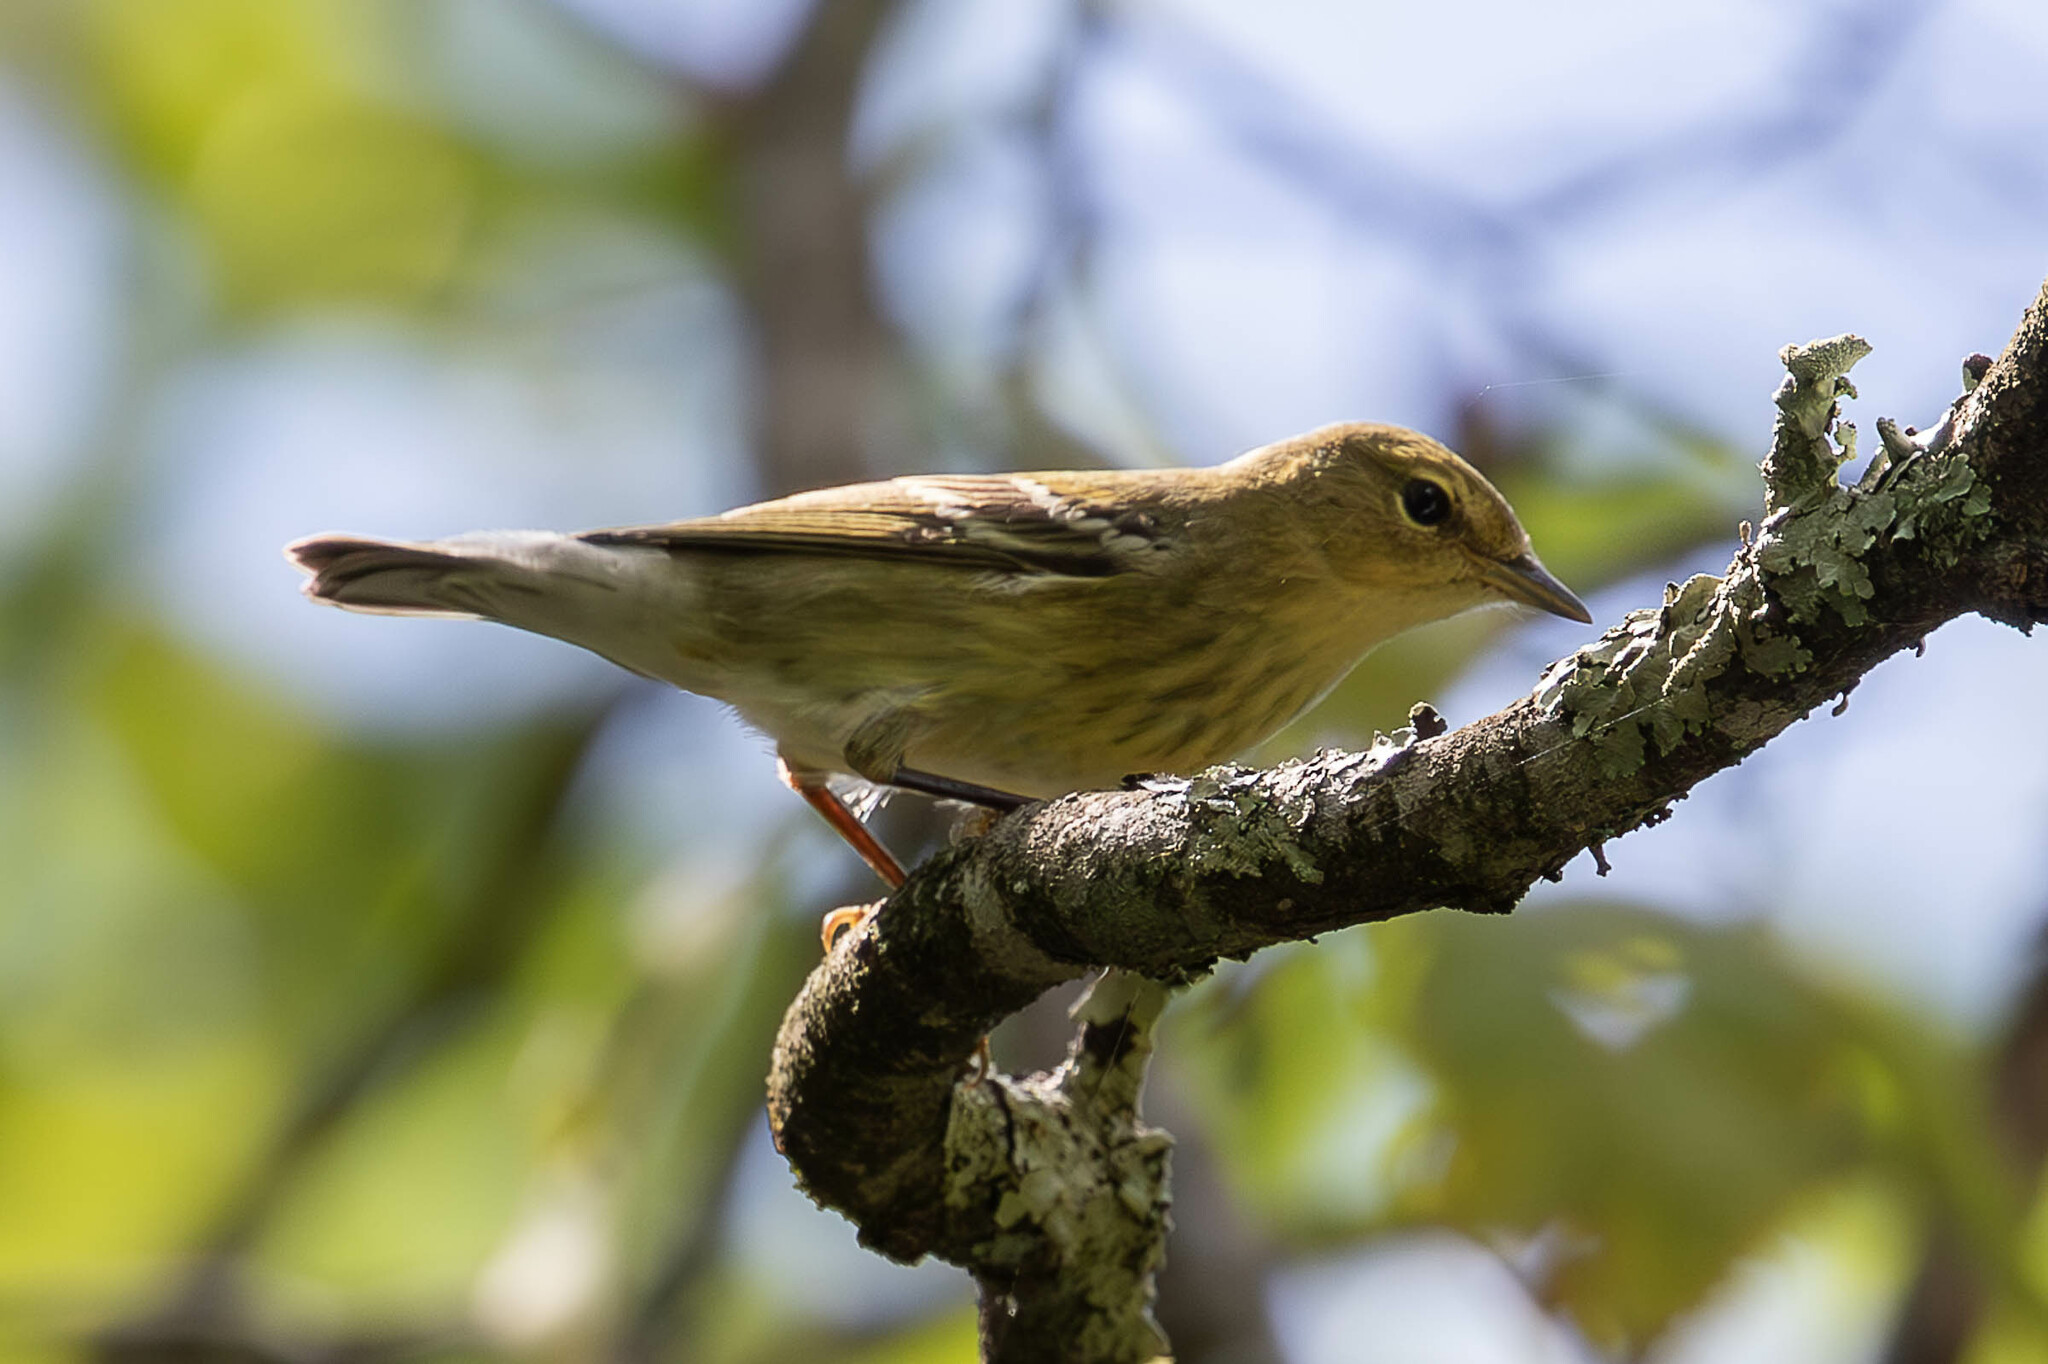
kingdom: Animalia
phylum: Chordata
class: Aves
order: Passeriformes
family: Parulidae
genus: Setophaga
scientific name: Setophaga striata
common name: Blackpoll warbler
